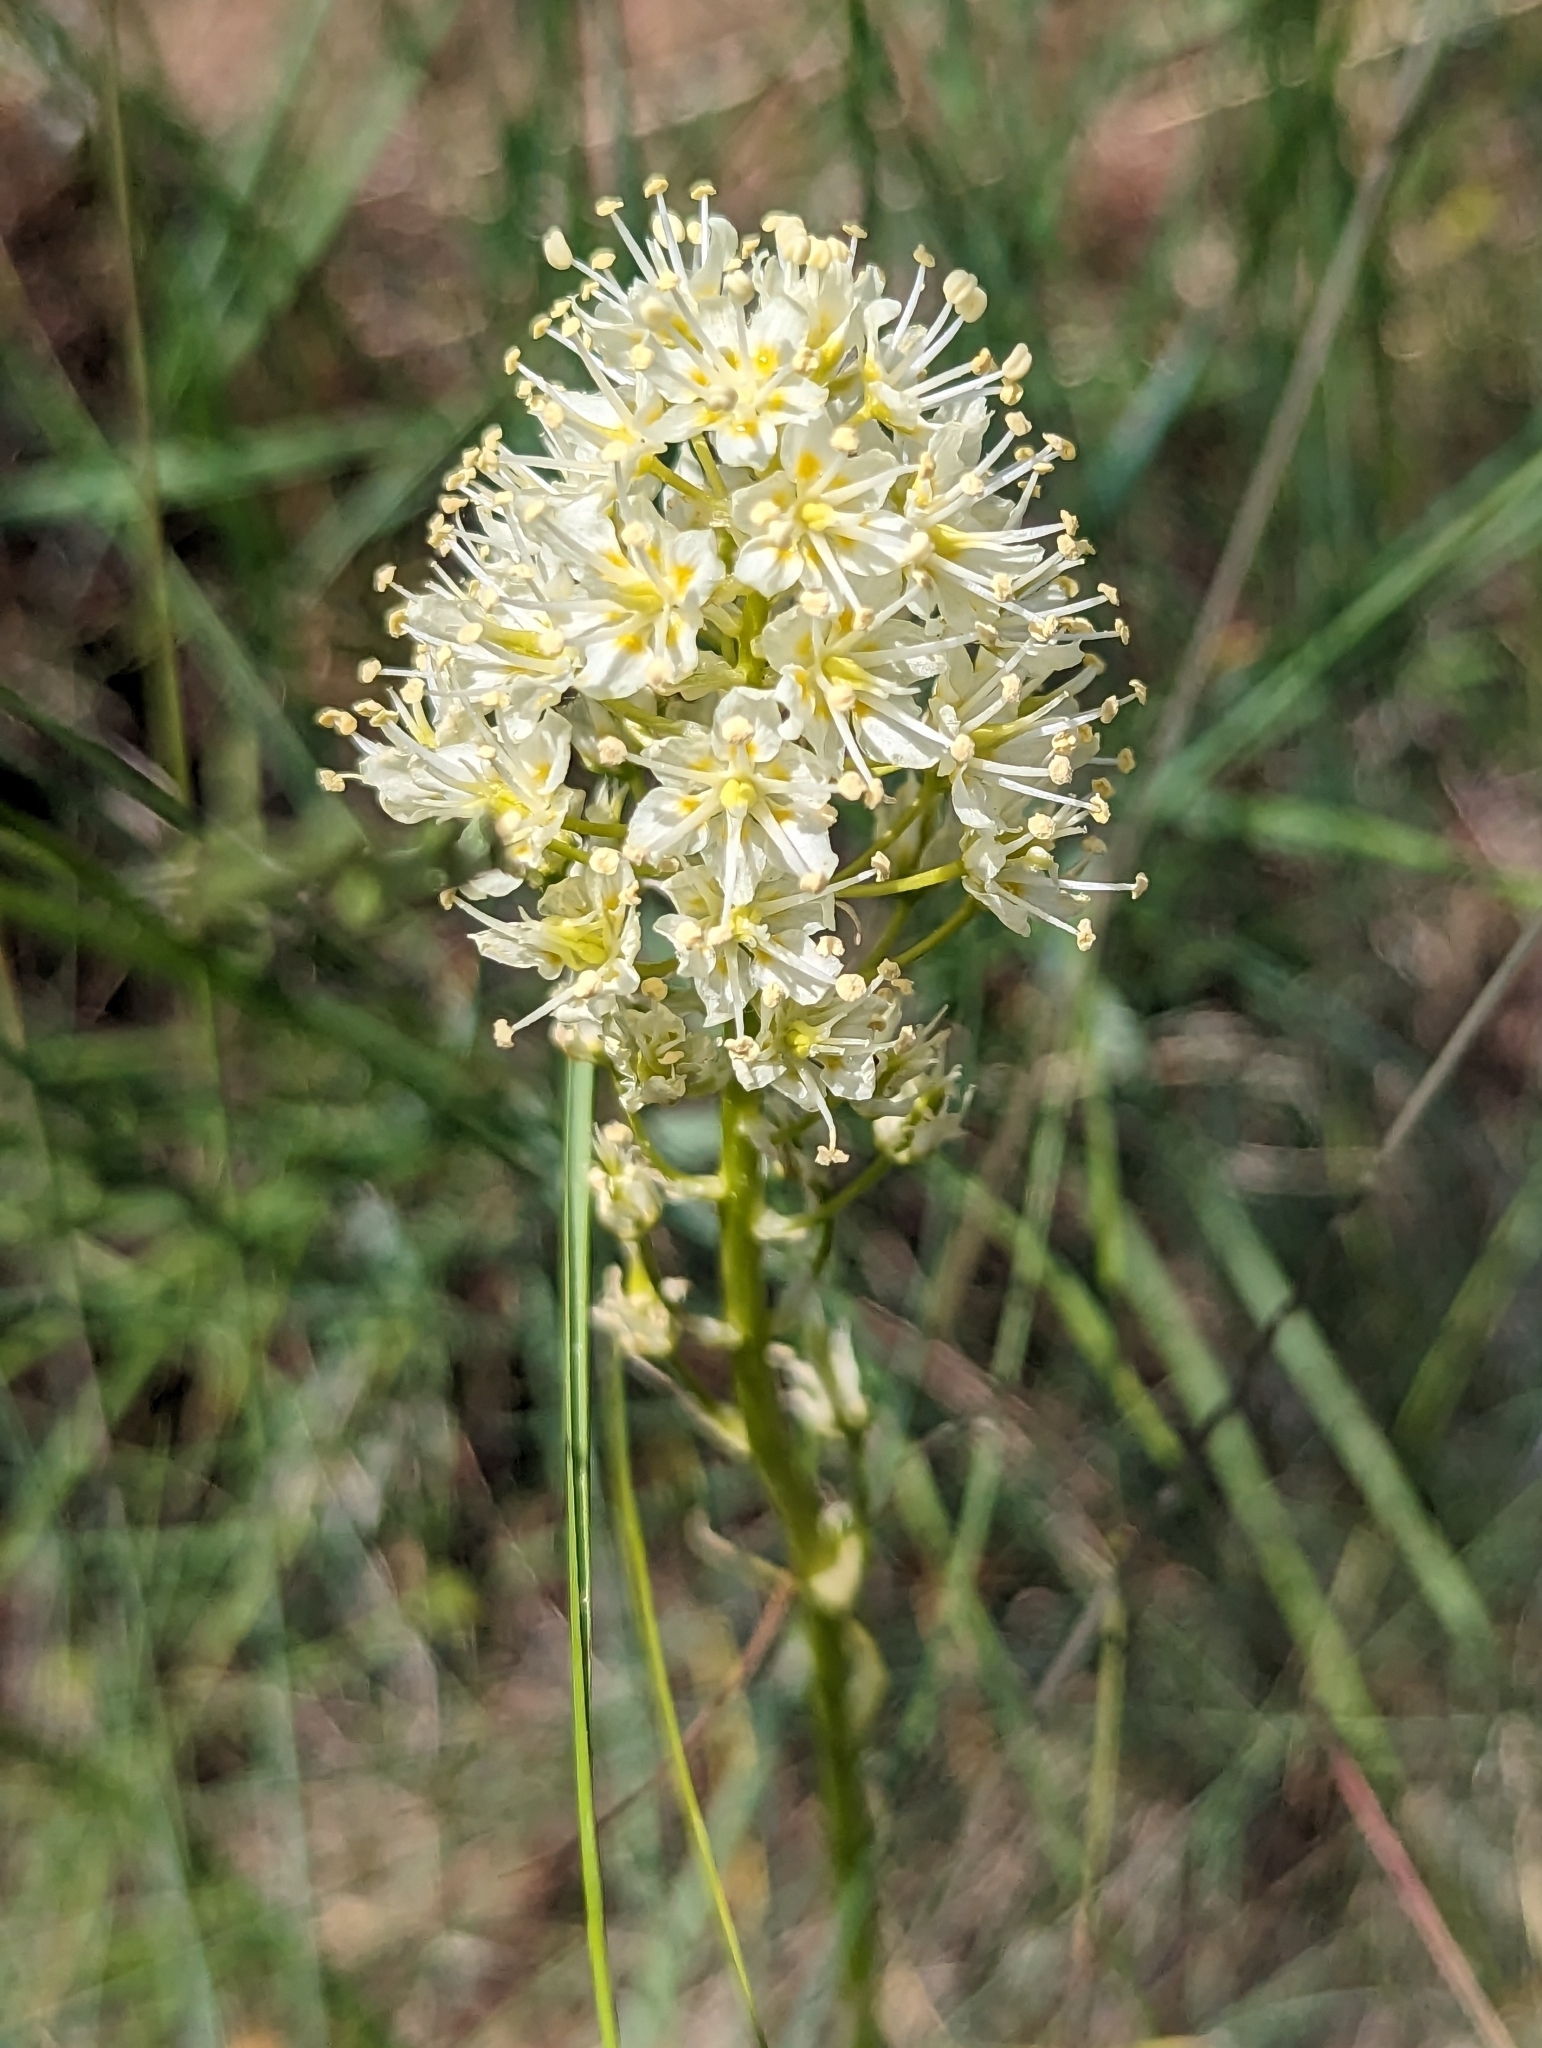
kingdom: Plantae
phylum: Tracheophyta
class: Liliopsida
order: Liliales
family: Melanthiaceae
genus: Toxicoscordion
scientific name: Toxicoscordion venenosum
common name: Meadow death camas
